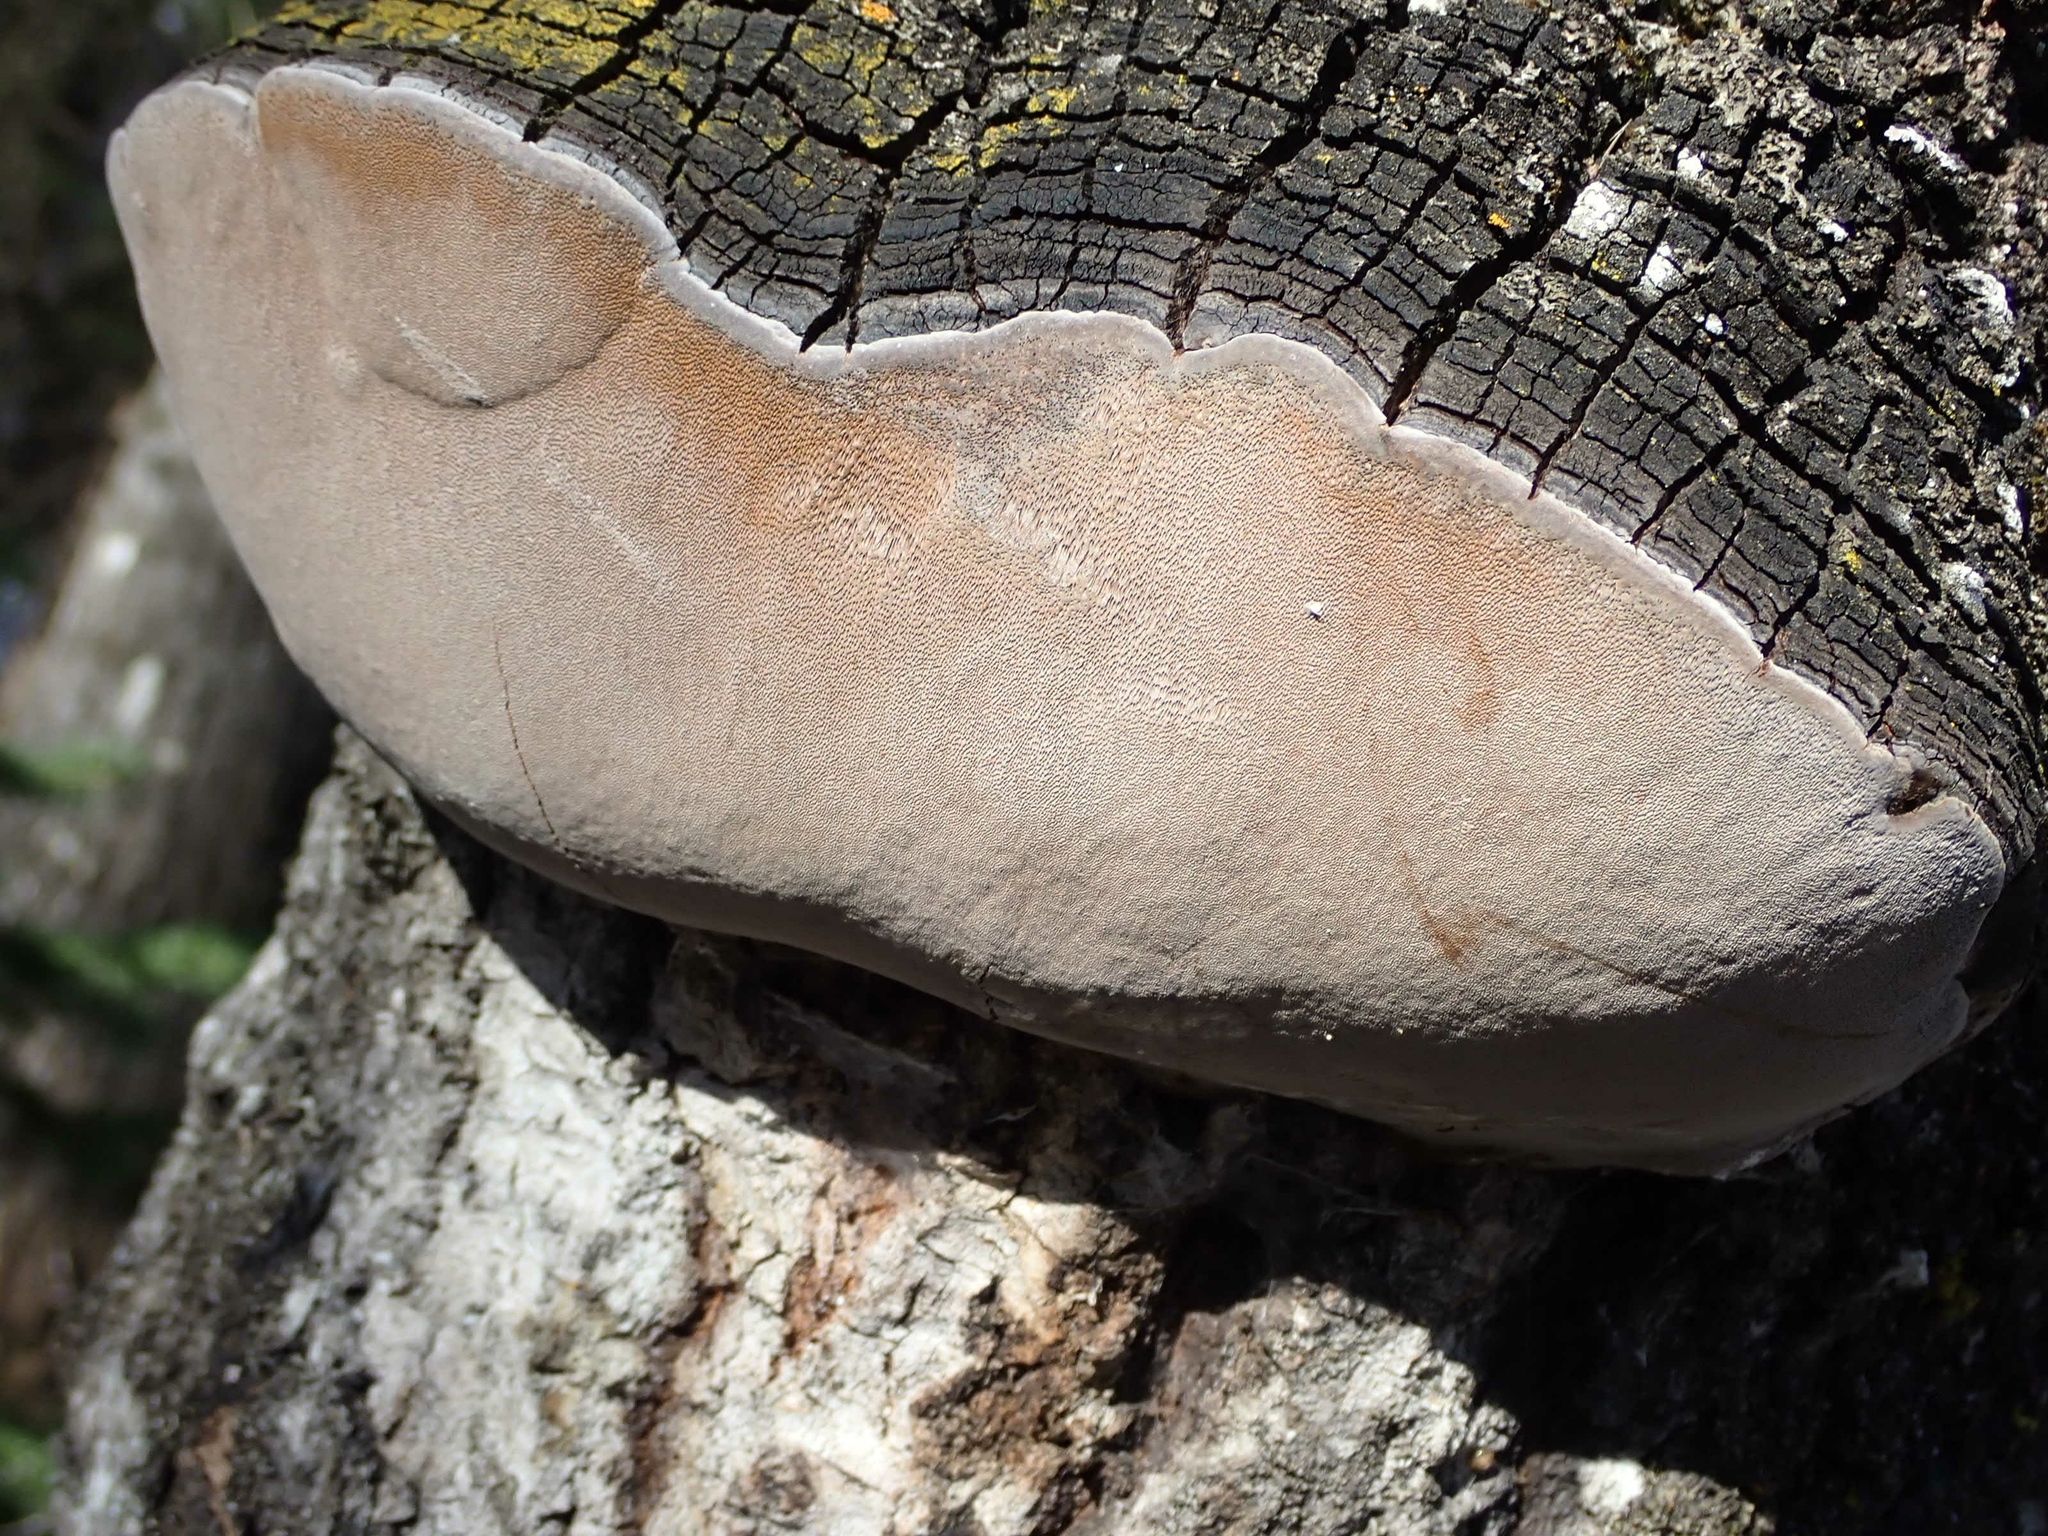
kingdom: Fungi
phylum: Basidiomycota
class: Agaricomycetes
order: Hymenochaetales
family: Hymenochaetaceae
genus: Phellinus
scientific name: Phellinus tremulae
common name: Aspen bracket
